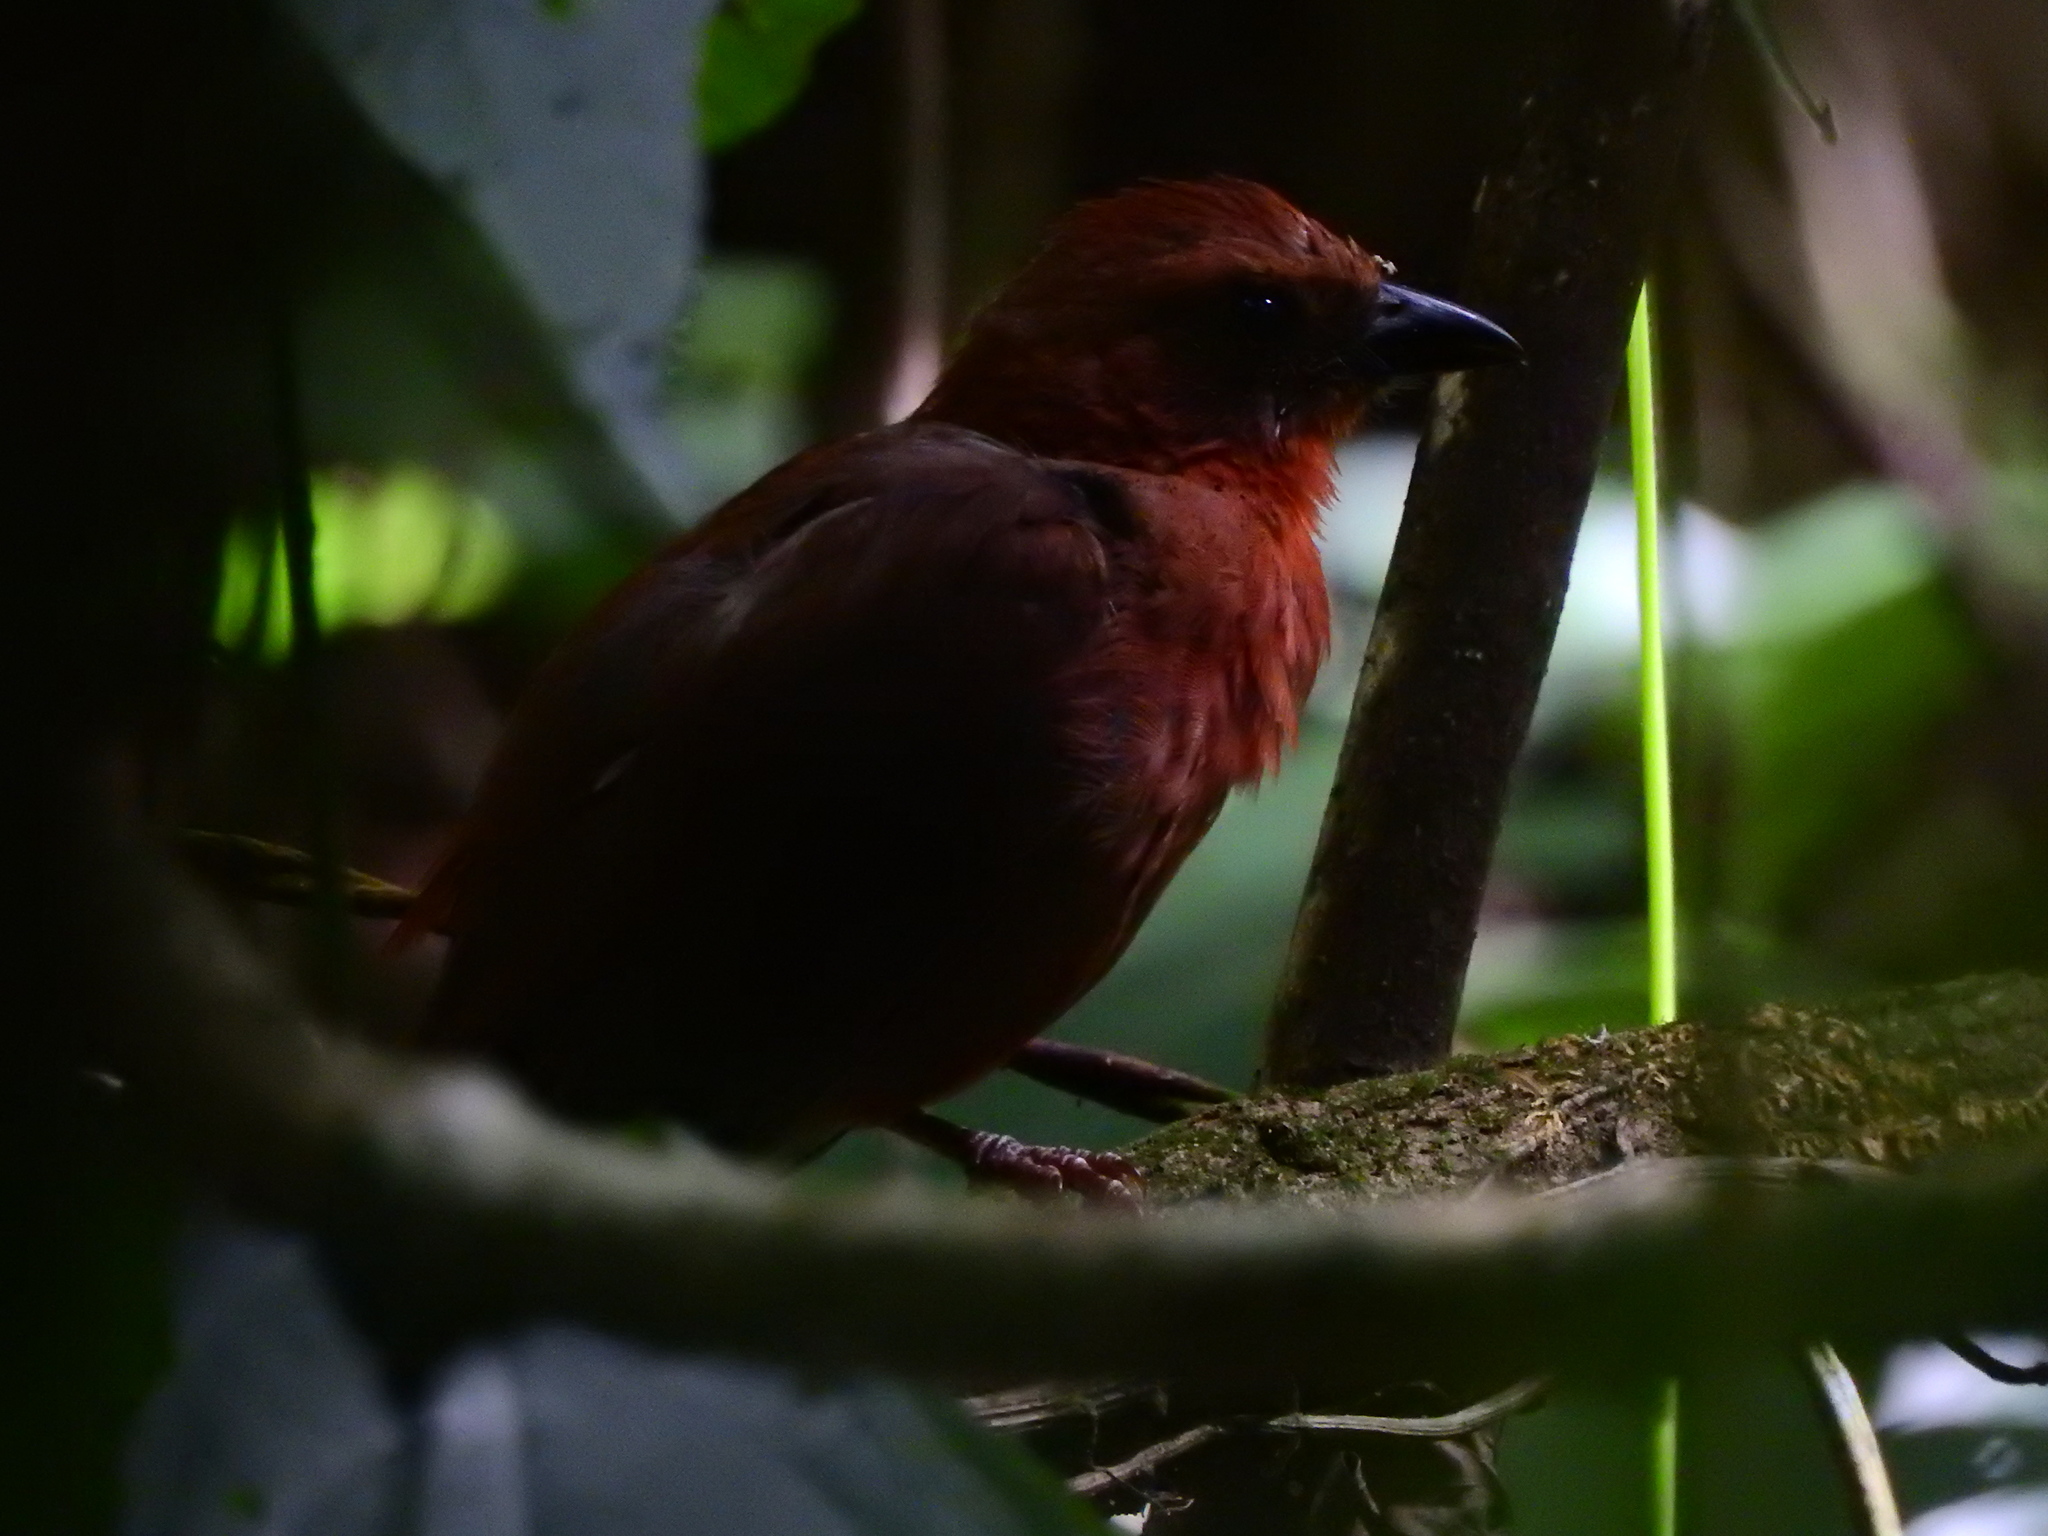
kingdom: Animalia
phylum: Chordata
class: Aves
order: Passeriformes
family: Cardinalidae
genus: Habia
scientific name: Habia rubica
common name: Red-crowned ant-tanager
